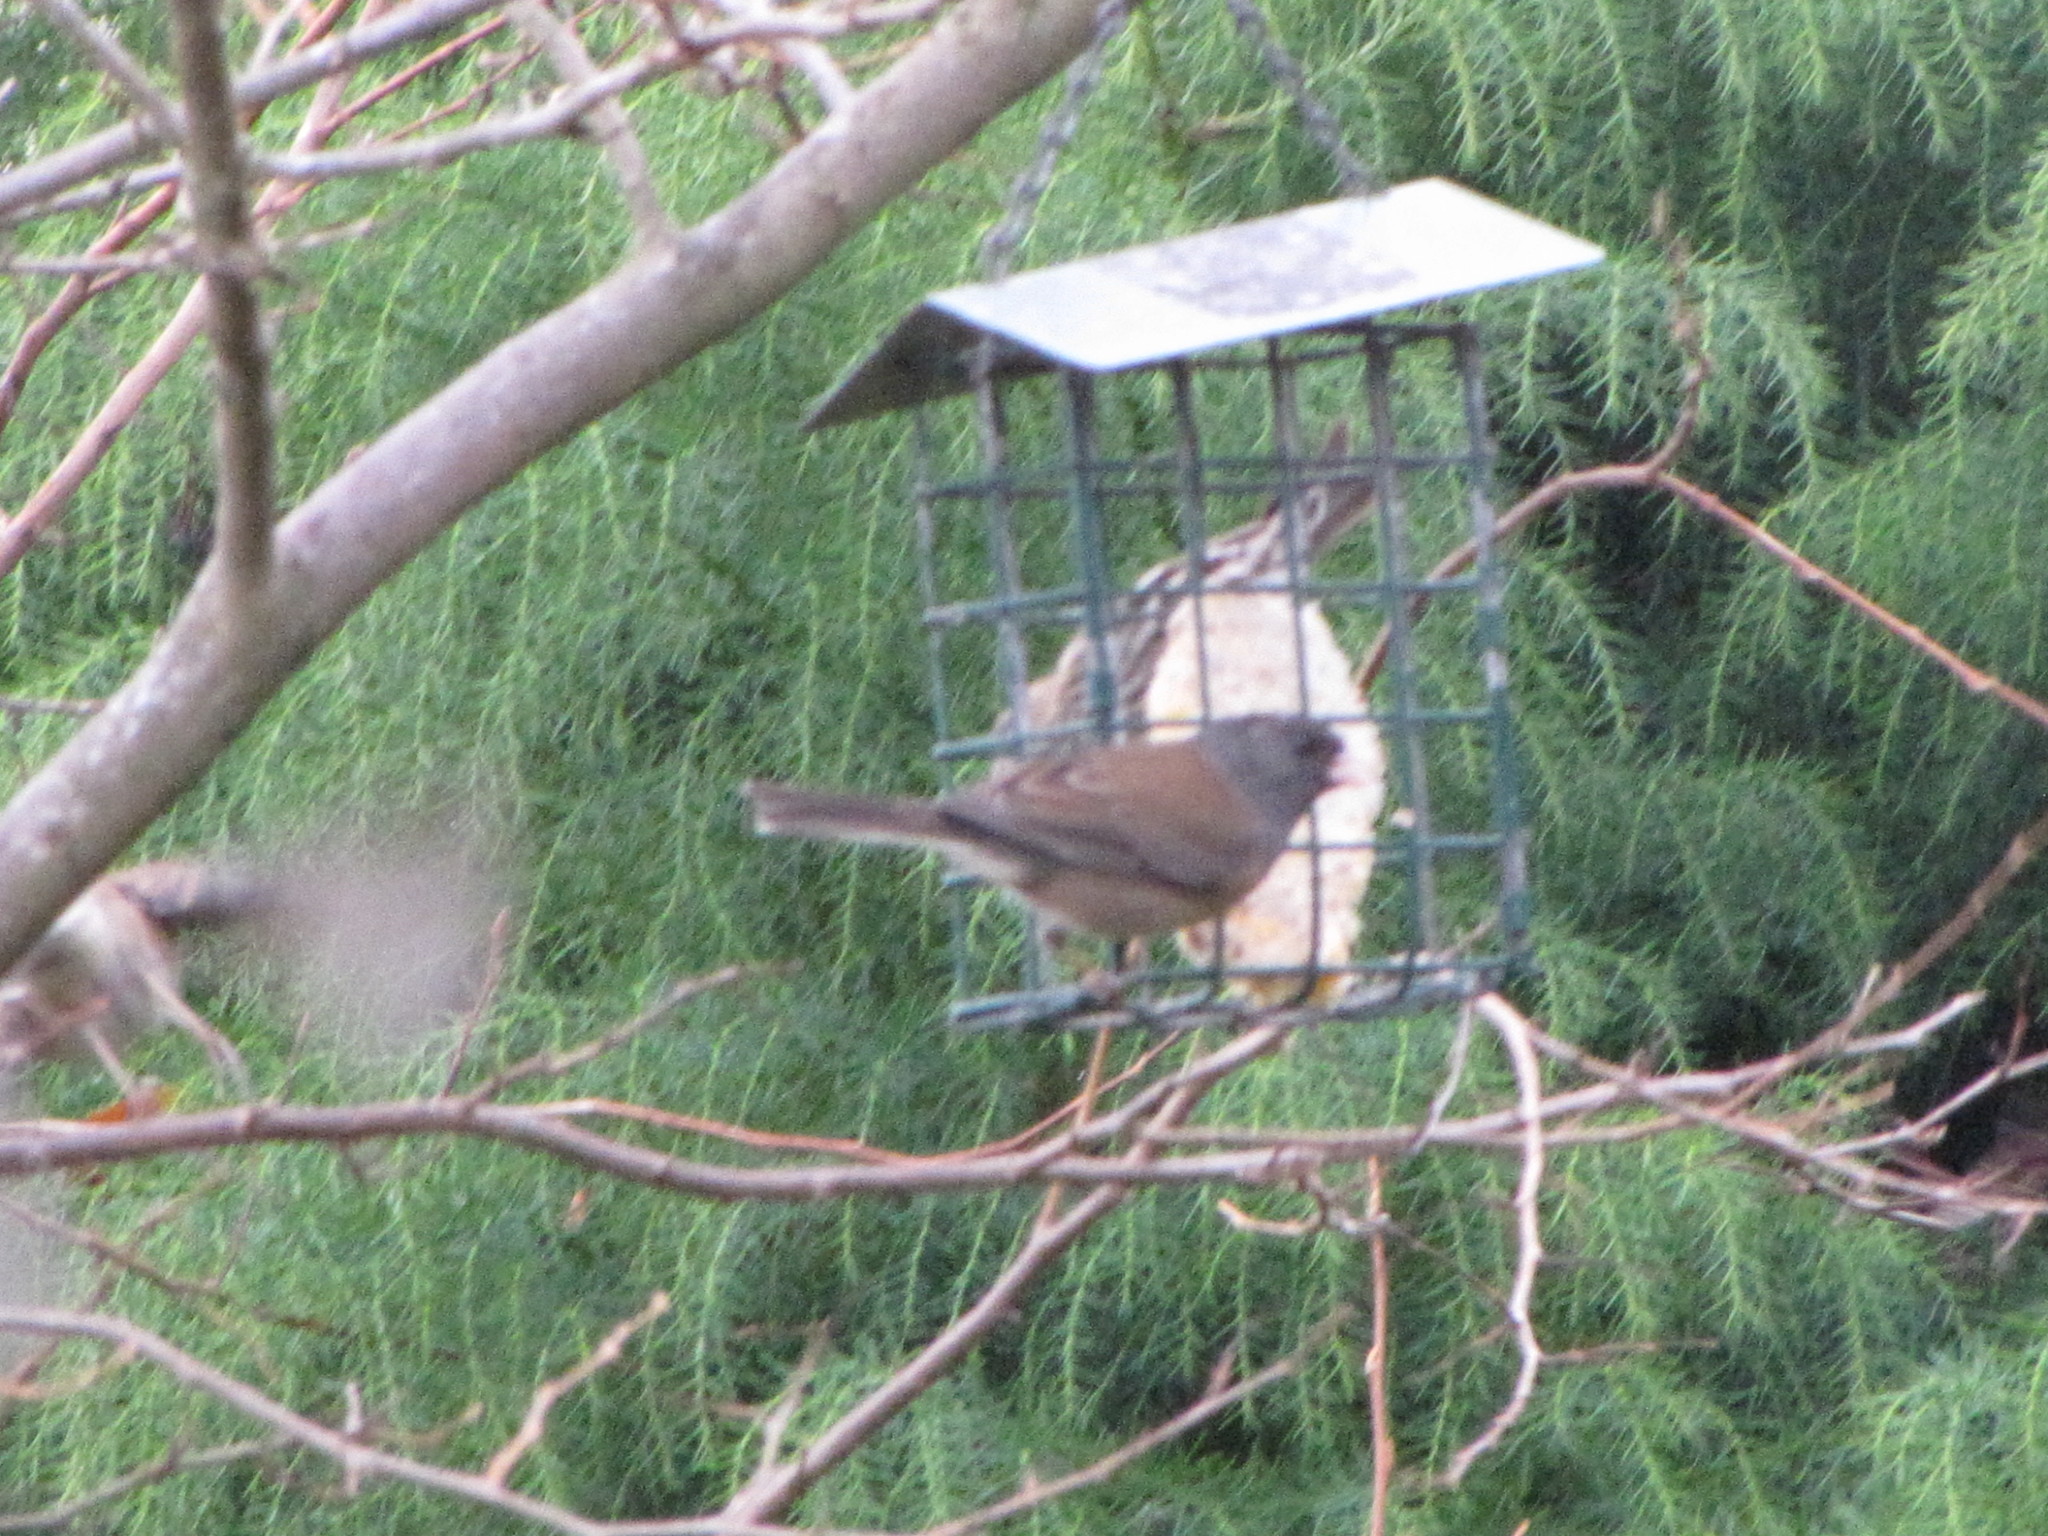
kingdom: Animalia
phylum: Chordata
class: Aves
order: Passeriformes
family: Passerellidae
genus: Junco
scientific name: Junco hyemalis
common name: Dark-eyed junco
